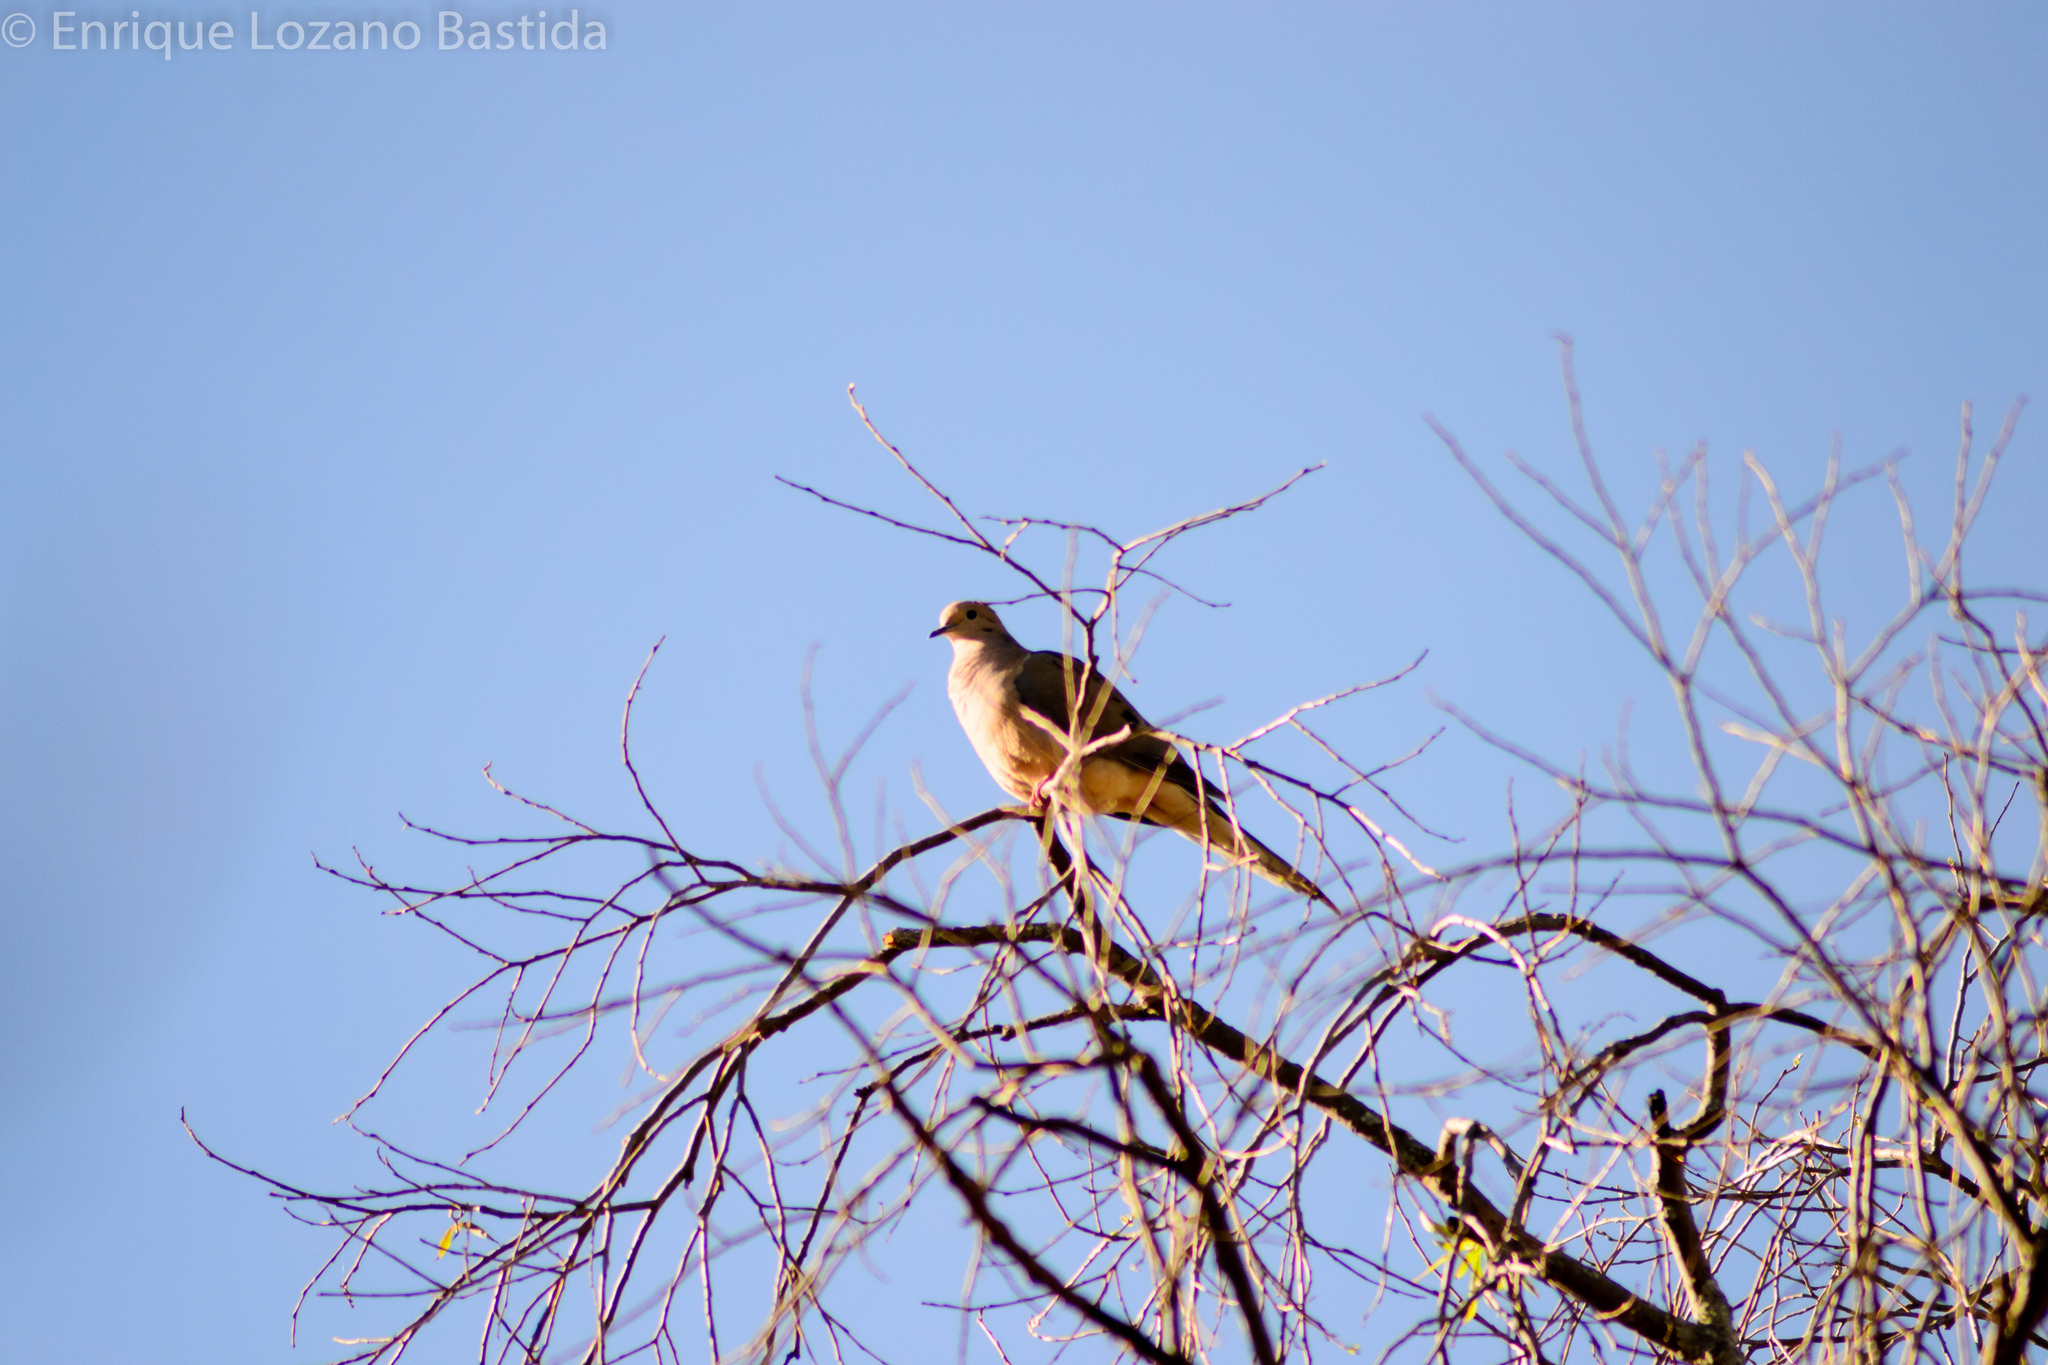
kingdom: Animalia
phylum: Chordata
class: Aves
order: Columbiformes
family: Columbidae
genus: Zenaida
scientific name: Zenaida macroura
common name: Mourning dove
